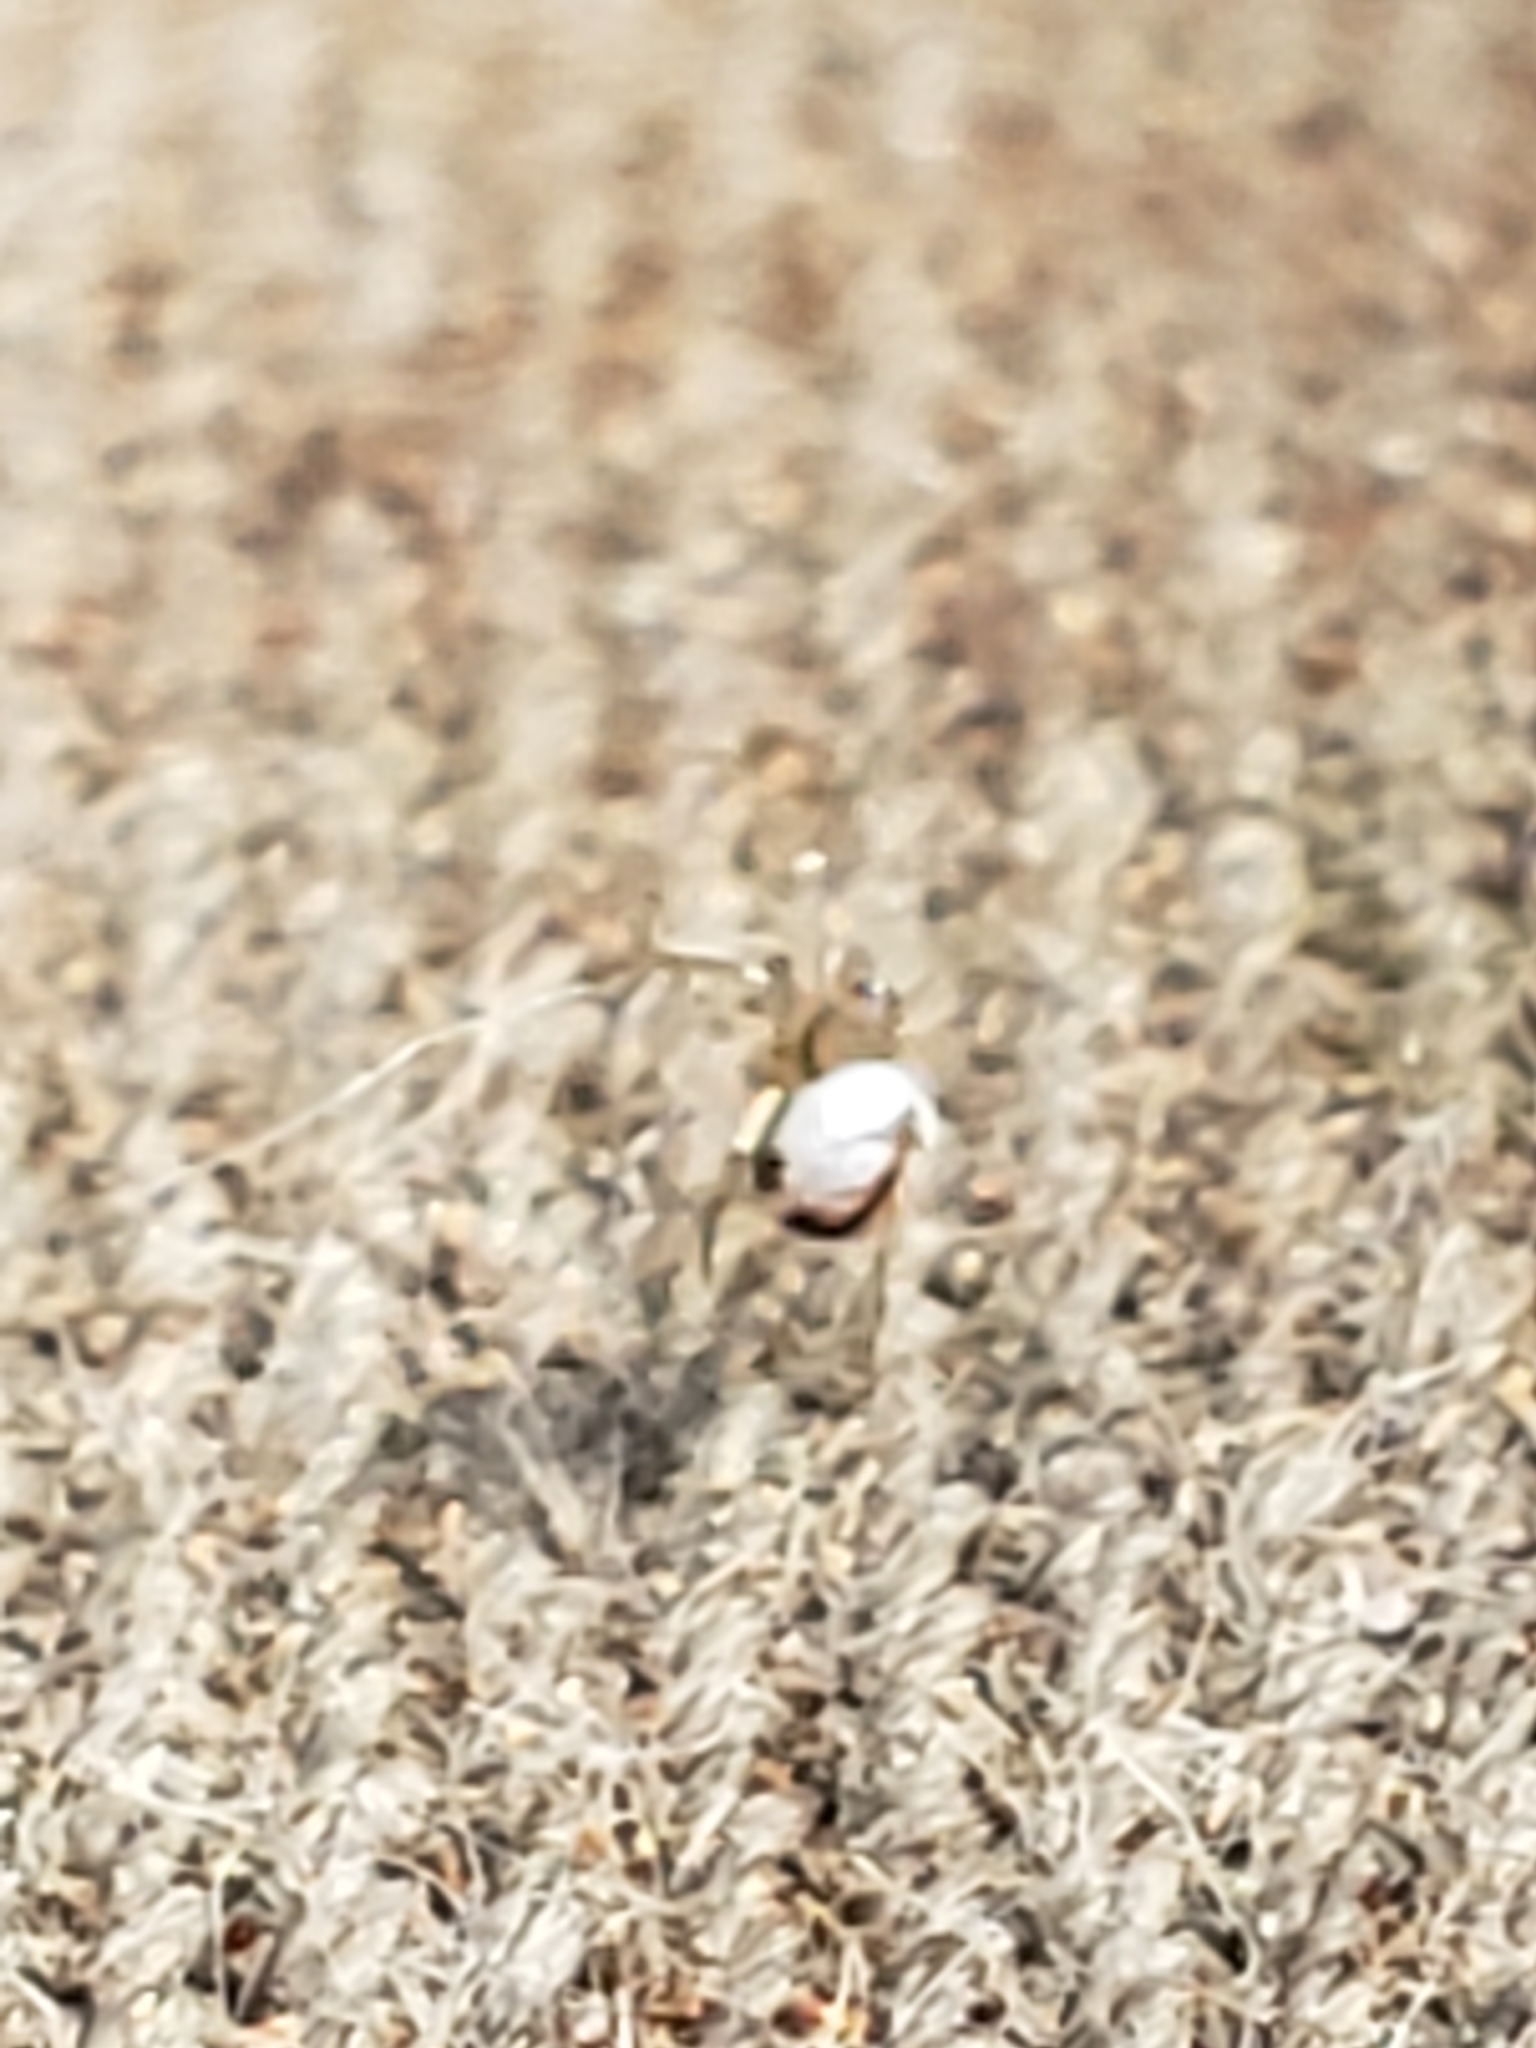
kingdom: Animalia
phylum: Arthropoda
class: Arachnida
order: Araneae
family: Tetragnathidae
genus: Leucauge
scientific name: Leucauge venusta
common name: Longjawed orb weavers
